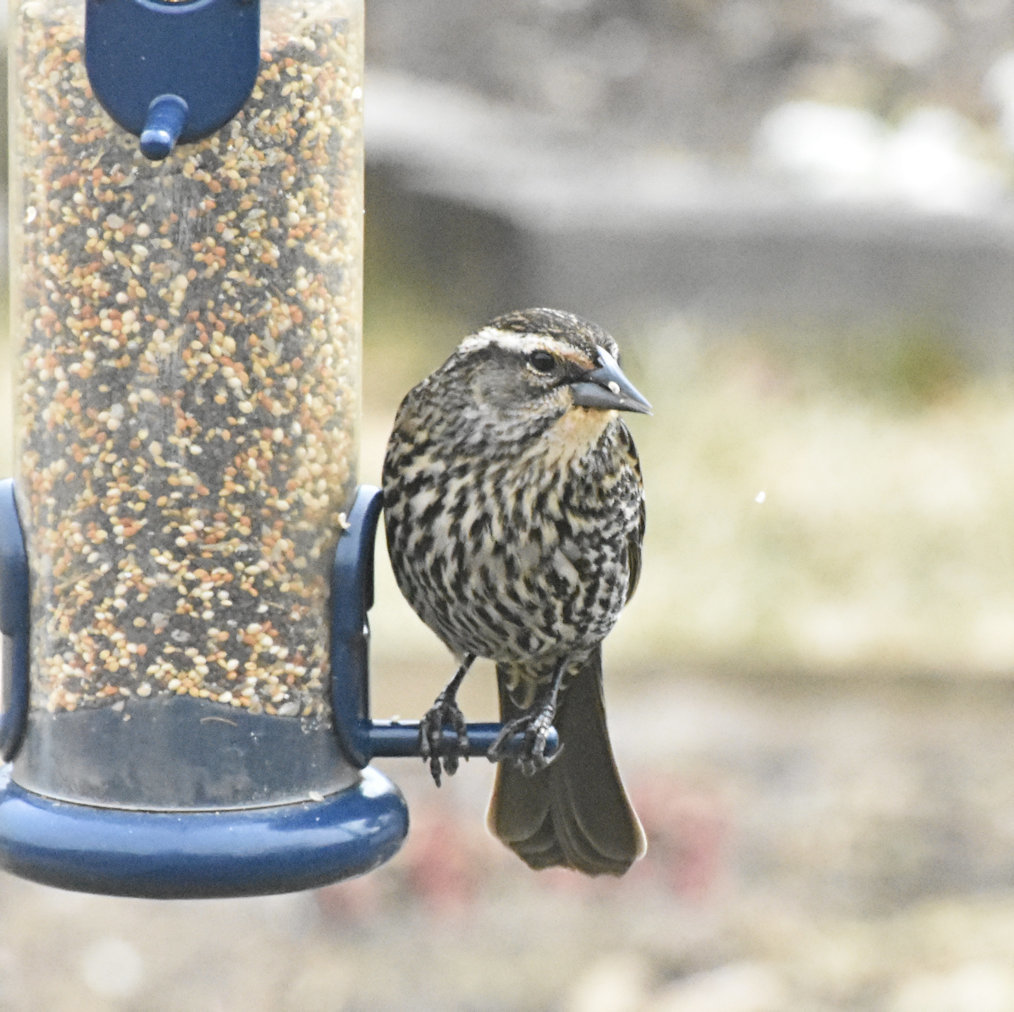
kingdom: Animalia
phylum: Chordata
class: Aves
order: Passeriformes
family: Icteridae
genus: Agelaius
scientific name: Agelaius phoeniceus
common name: Red-winged blackbird
